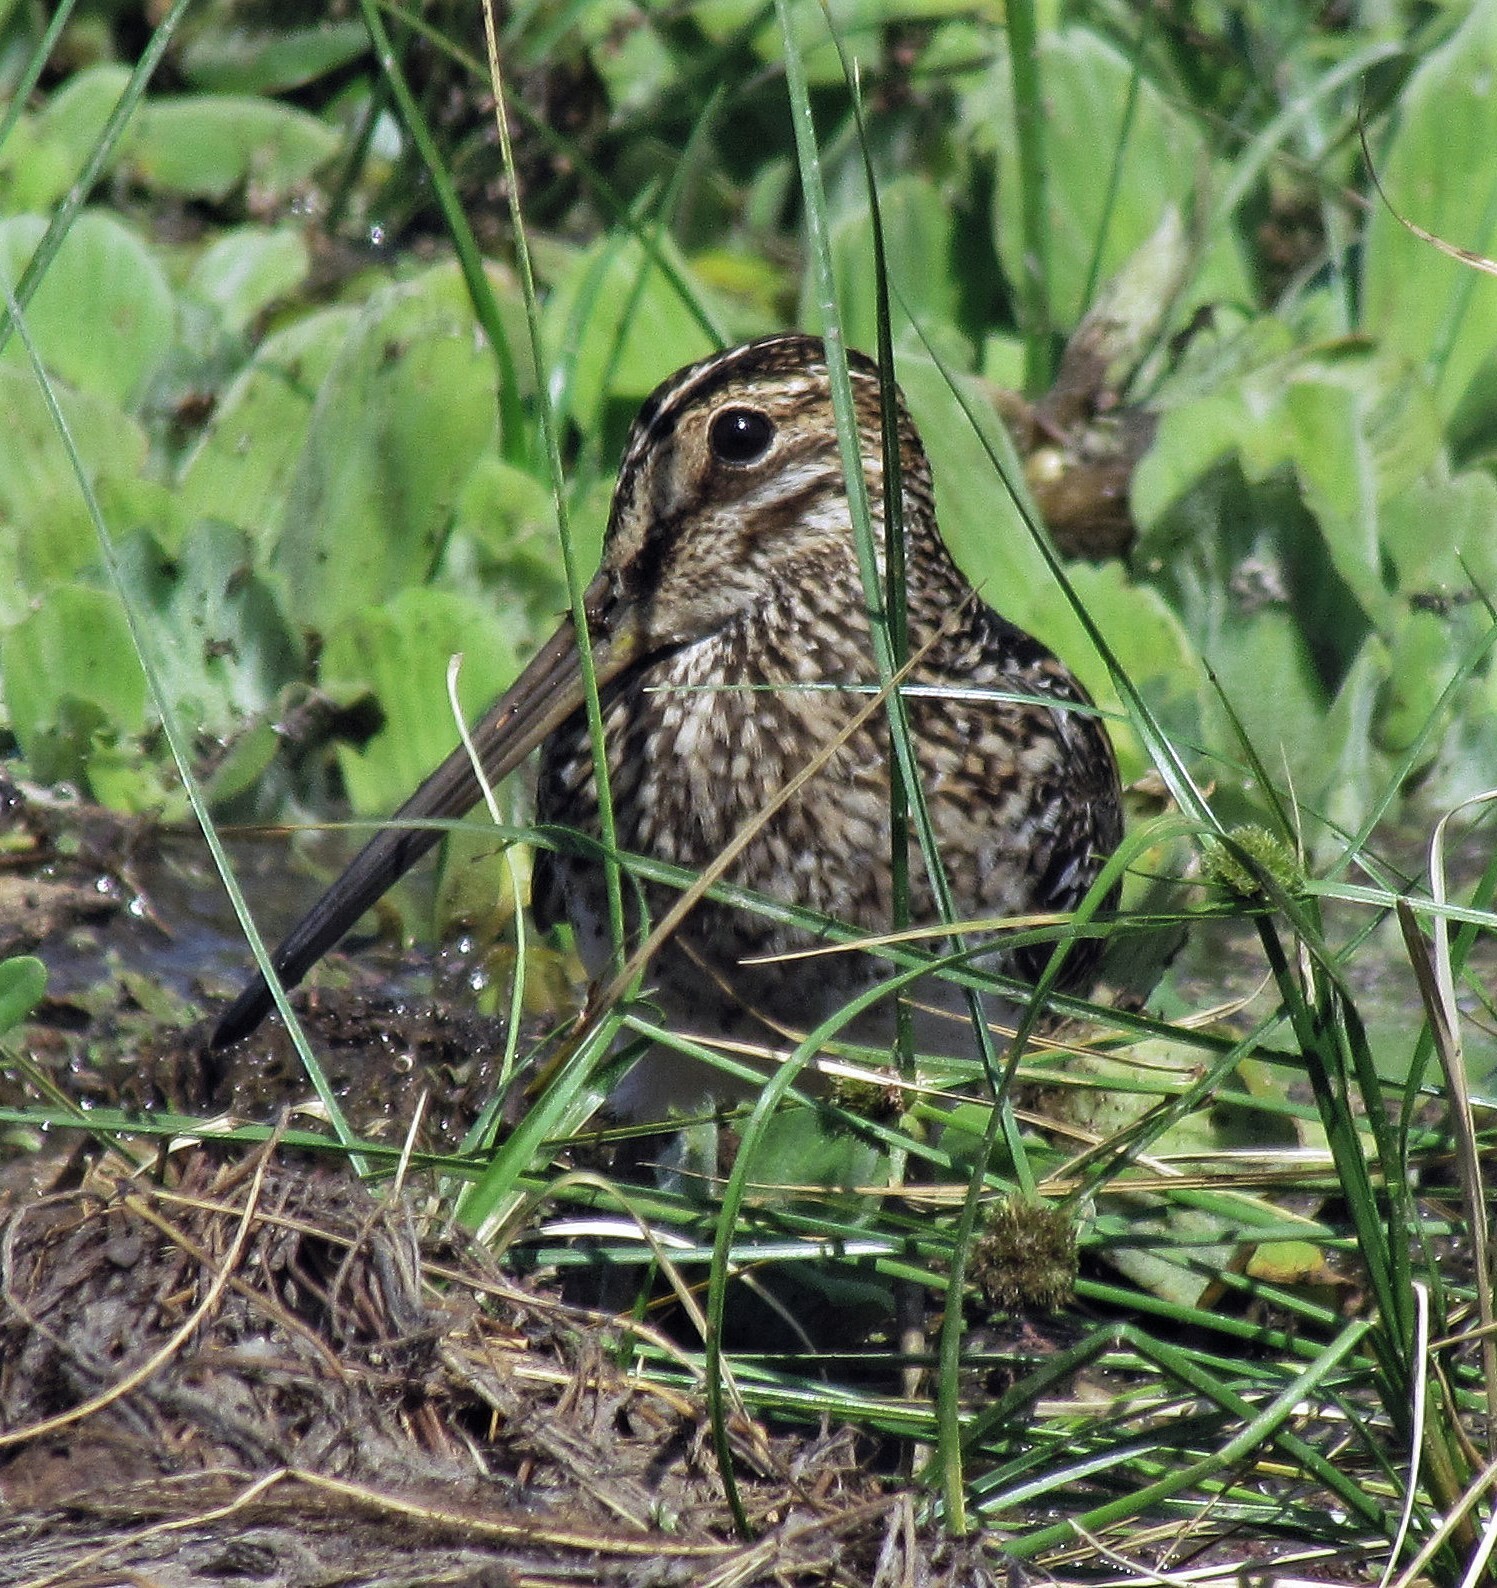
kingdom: Animalia
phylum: Chordata
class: Aves
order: Charadriiformes
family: Scolopacidae
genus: Gallinago
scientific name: Gallinago paraguaiae
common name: South american snipe
